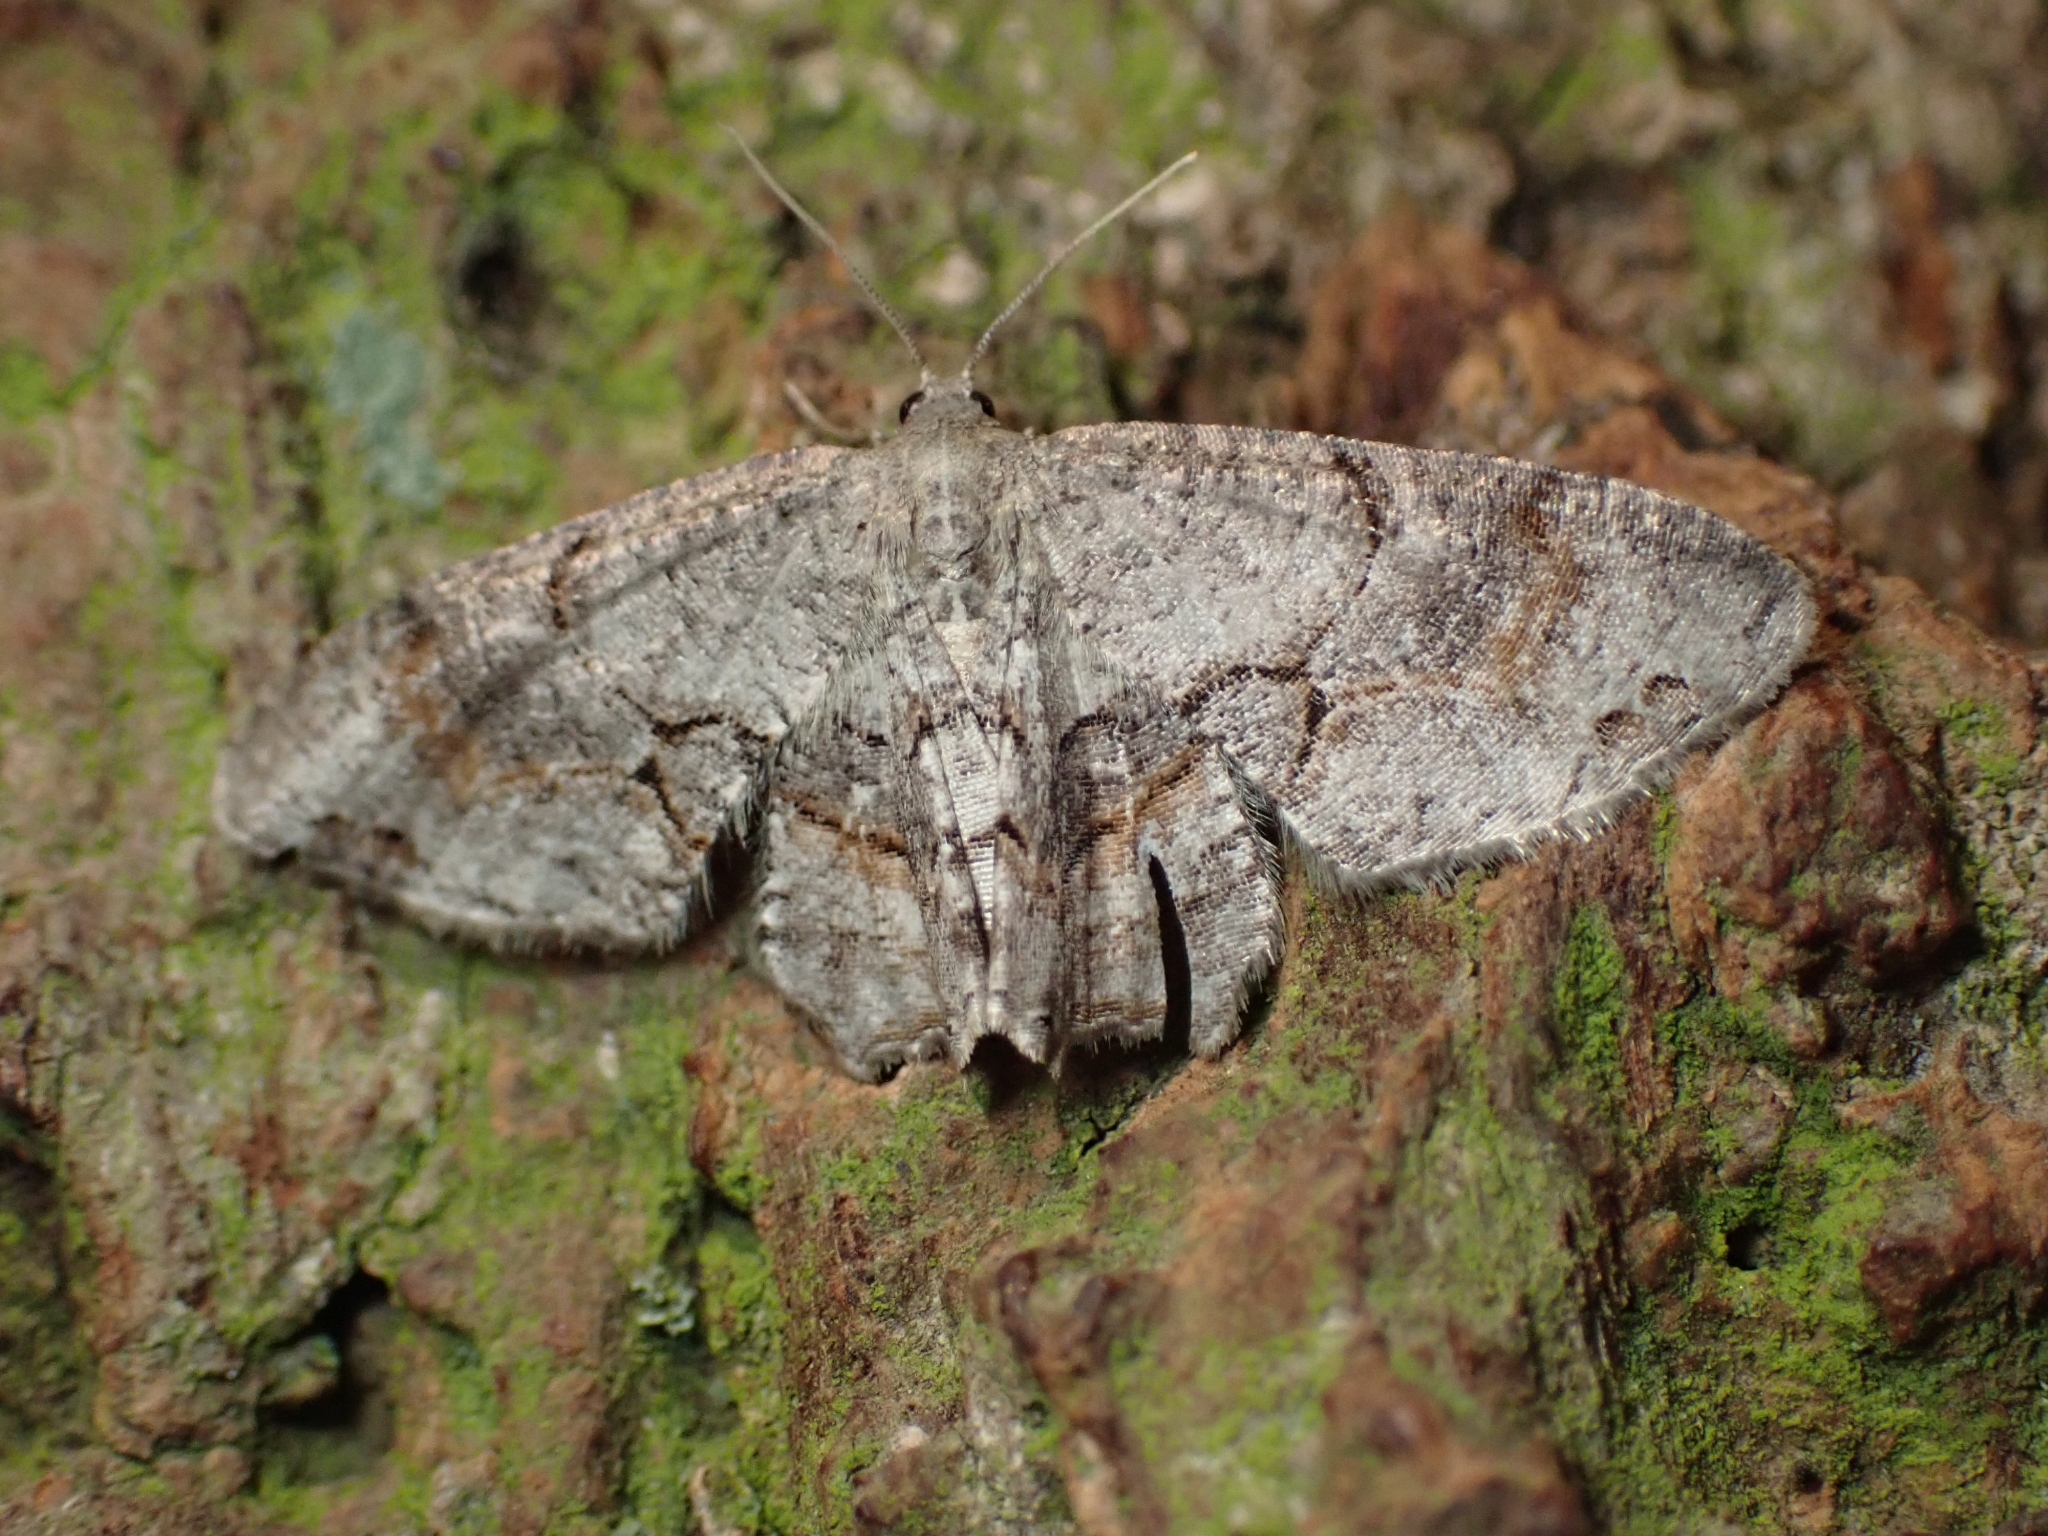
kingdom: Animalia
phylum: Arthropoda
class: Insecta
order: Lepidoptera
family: Uraniidae
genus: Epiplema
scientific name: Epiplema Callizzia amorata
